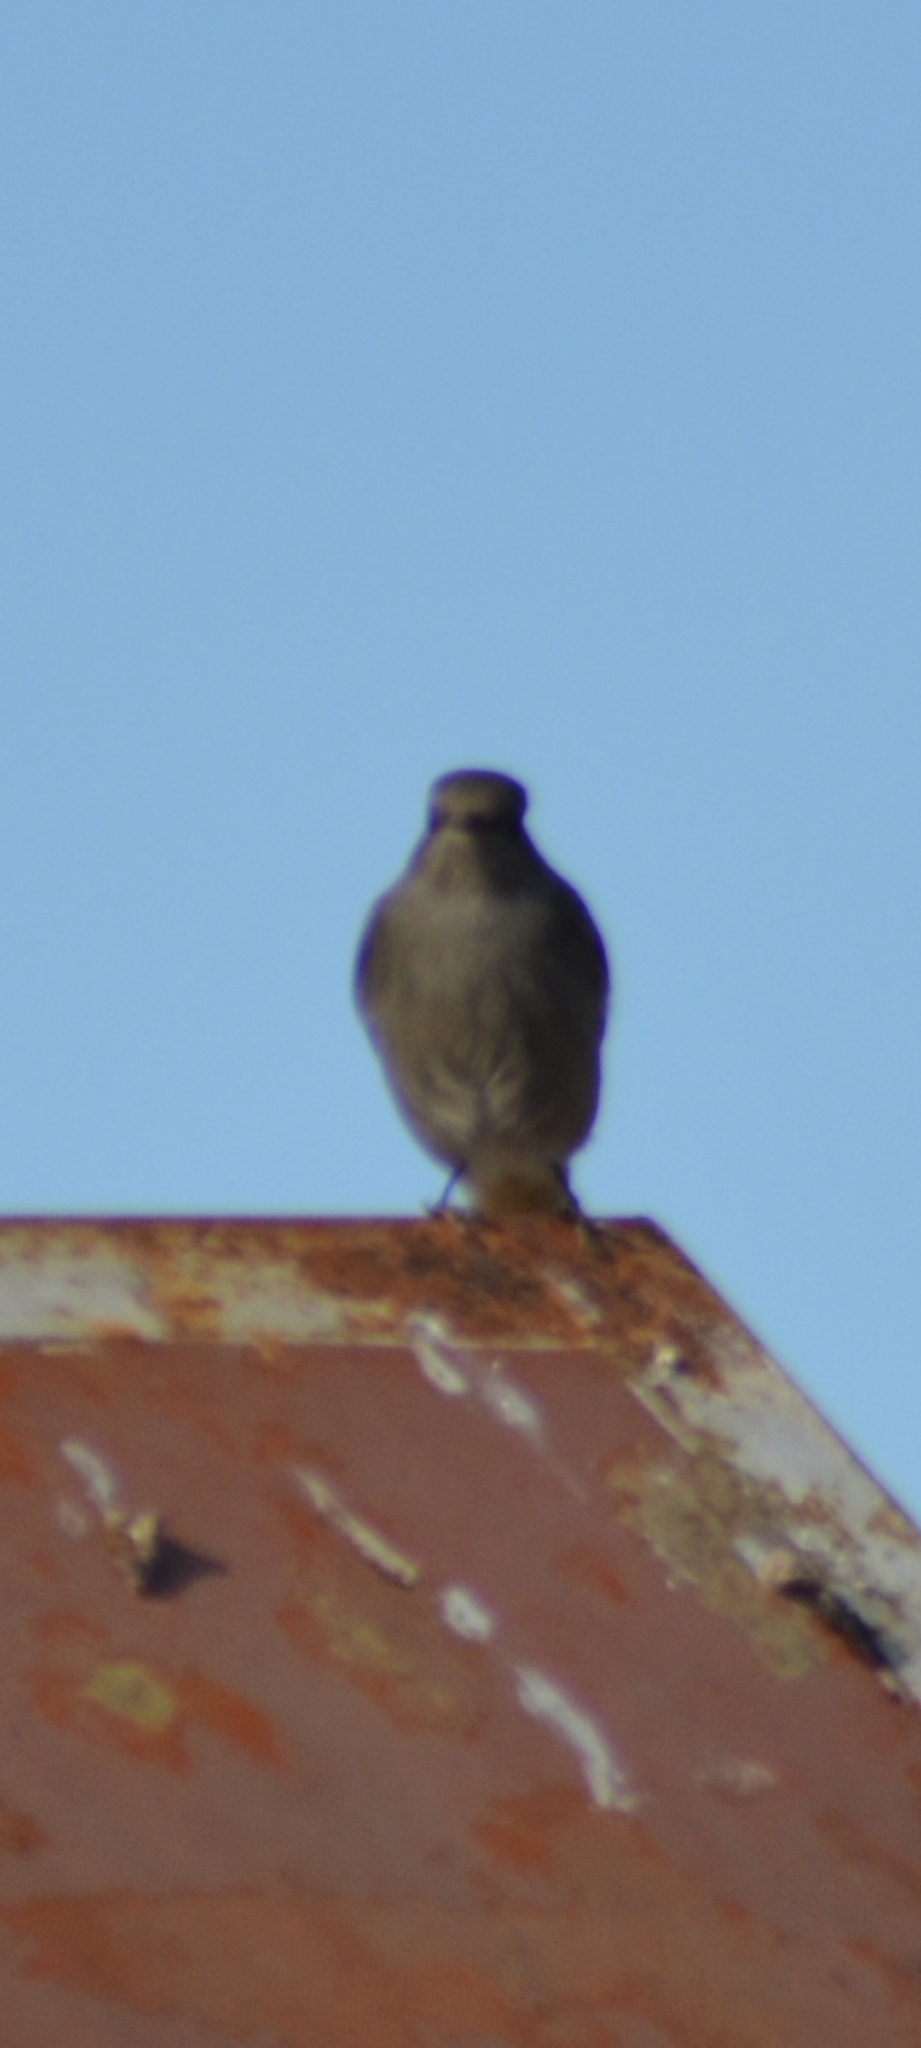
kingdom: Animalia
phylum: Chordata
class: Aves
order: Passeriformes
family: Muscicapidae
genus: Phoenicurus
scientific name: Phoenicurus ochruros
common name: Black redstart
